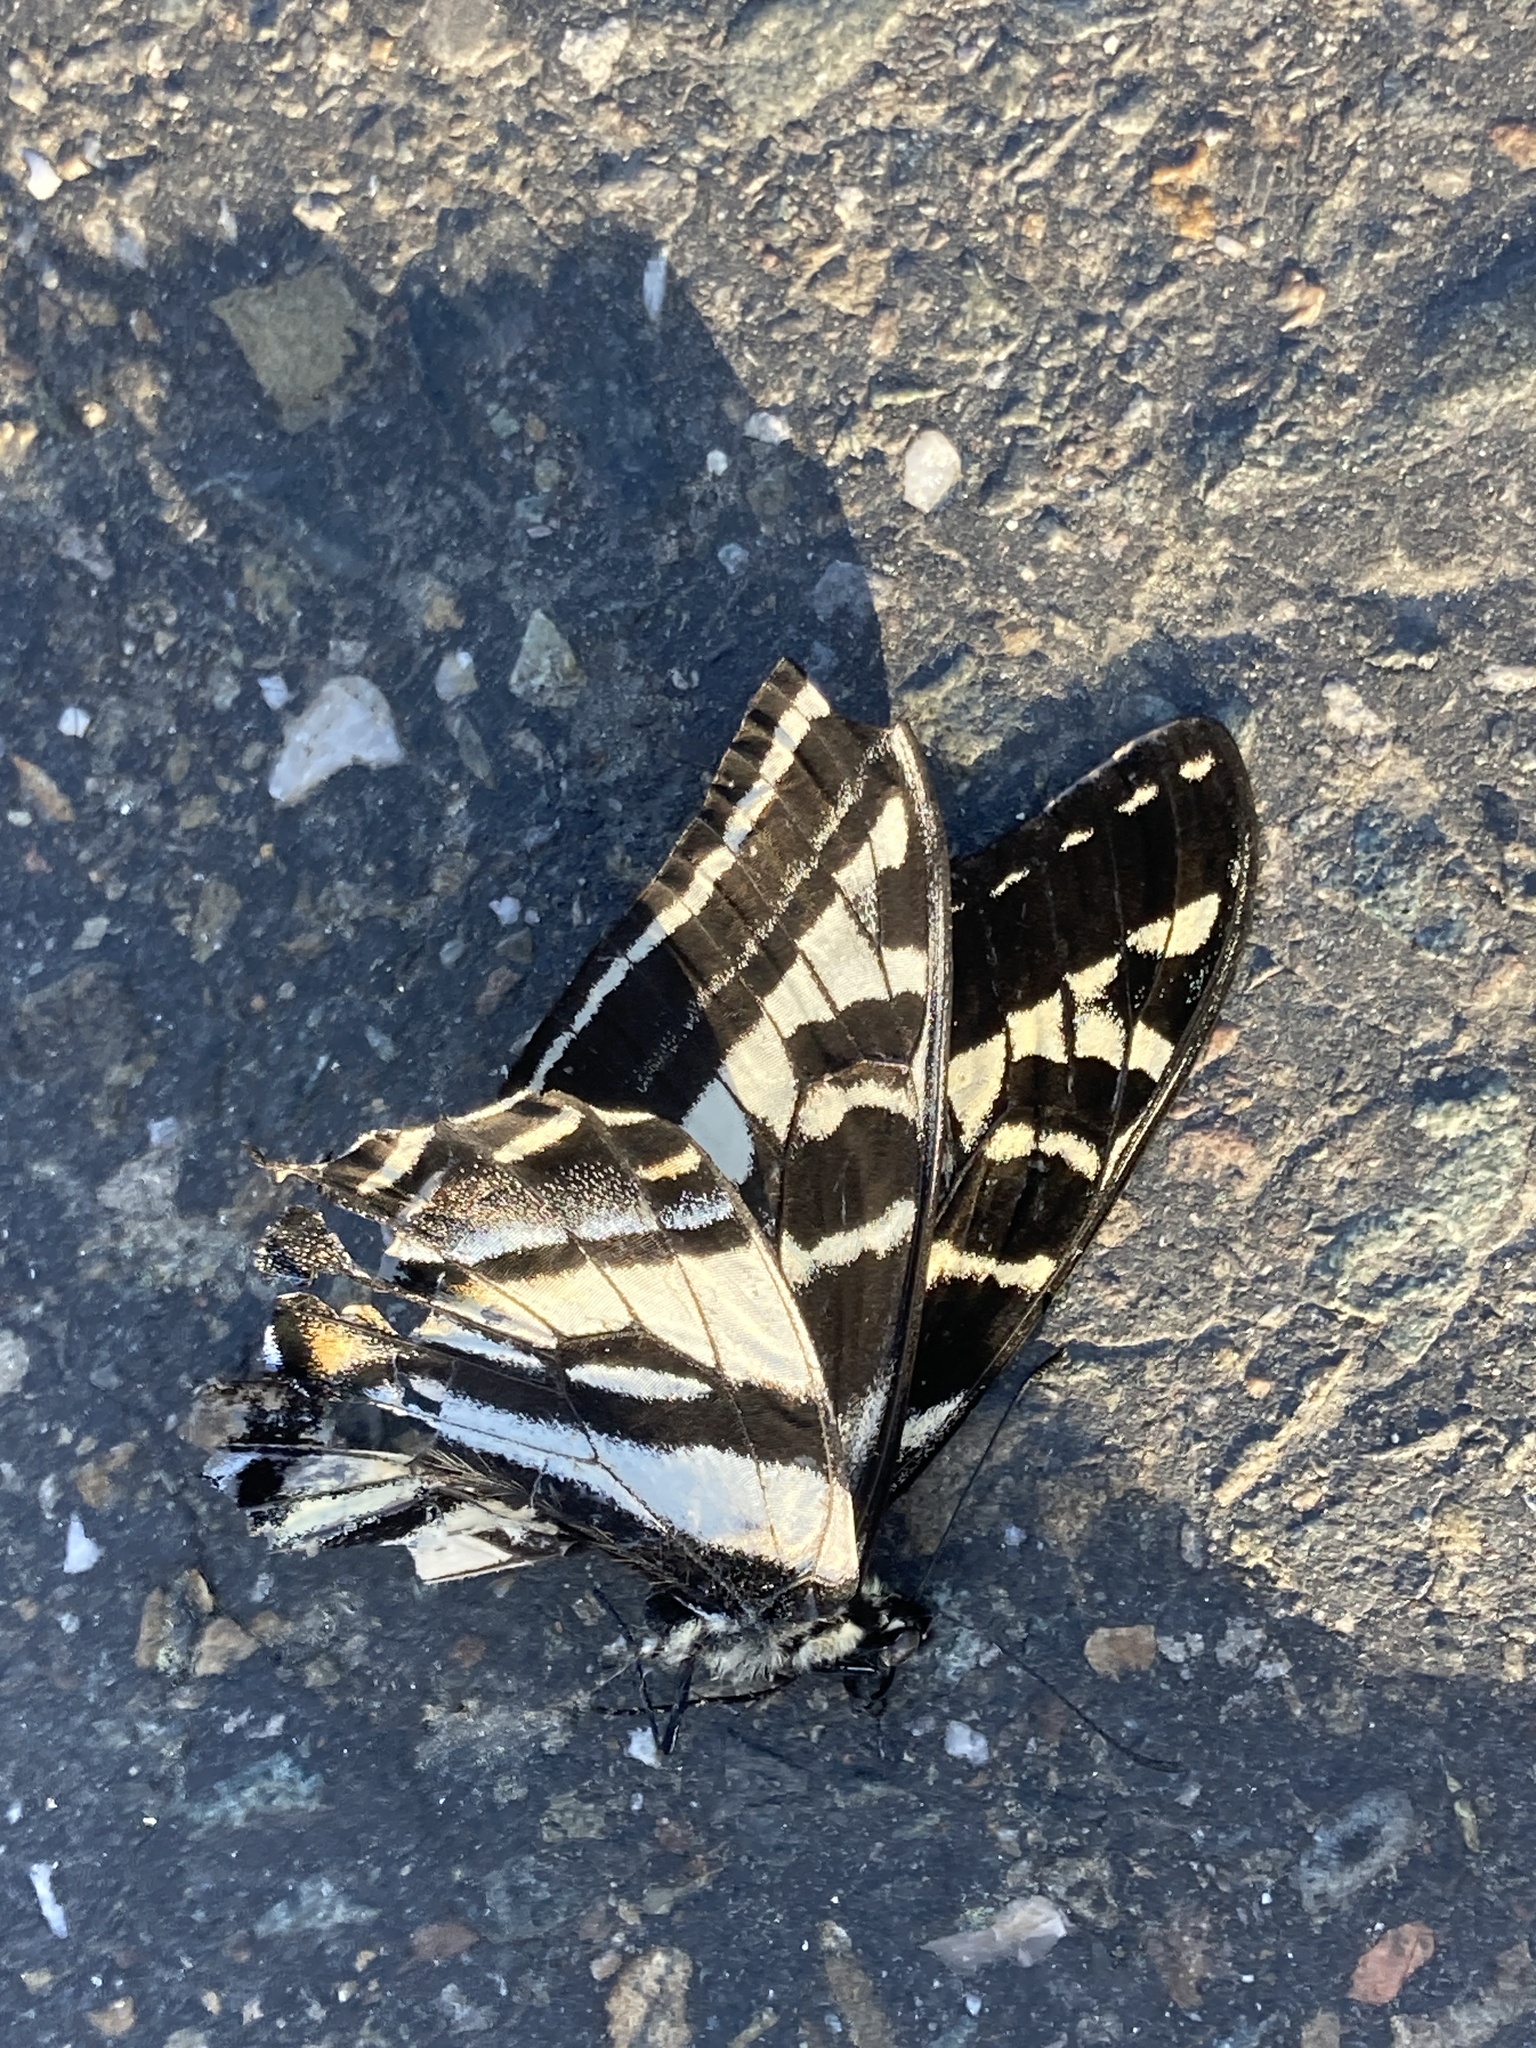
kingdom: Animalia
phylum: Arthropoda
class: Insecta
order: Lepidoptera
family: Papilionidae
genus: Papilio
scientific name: Papilio eurymedon
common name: Pale tiger swallowtail
